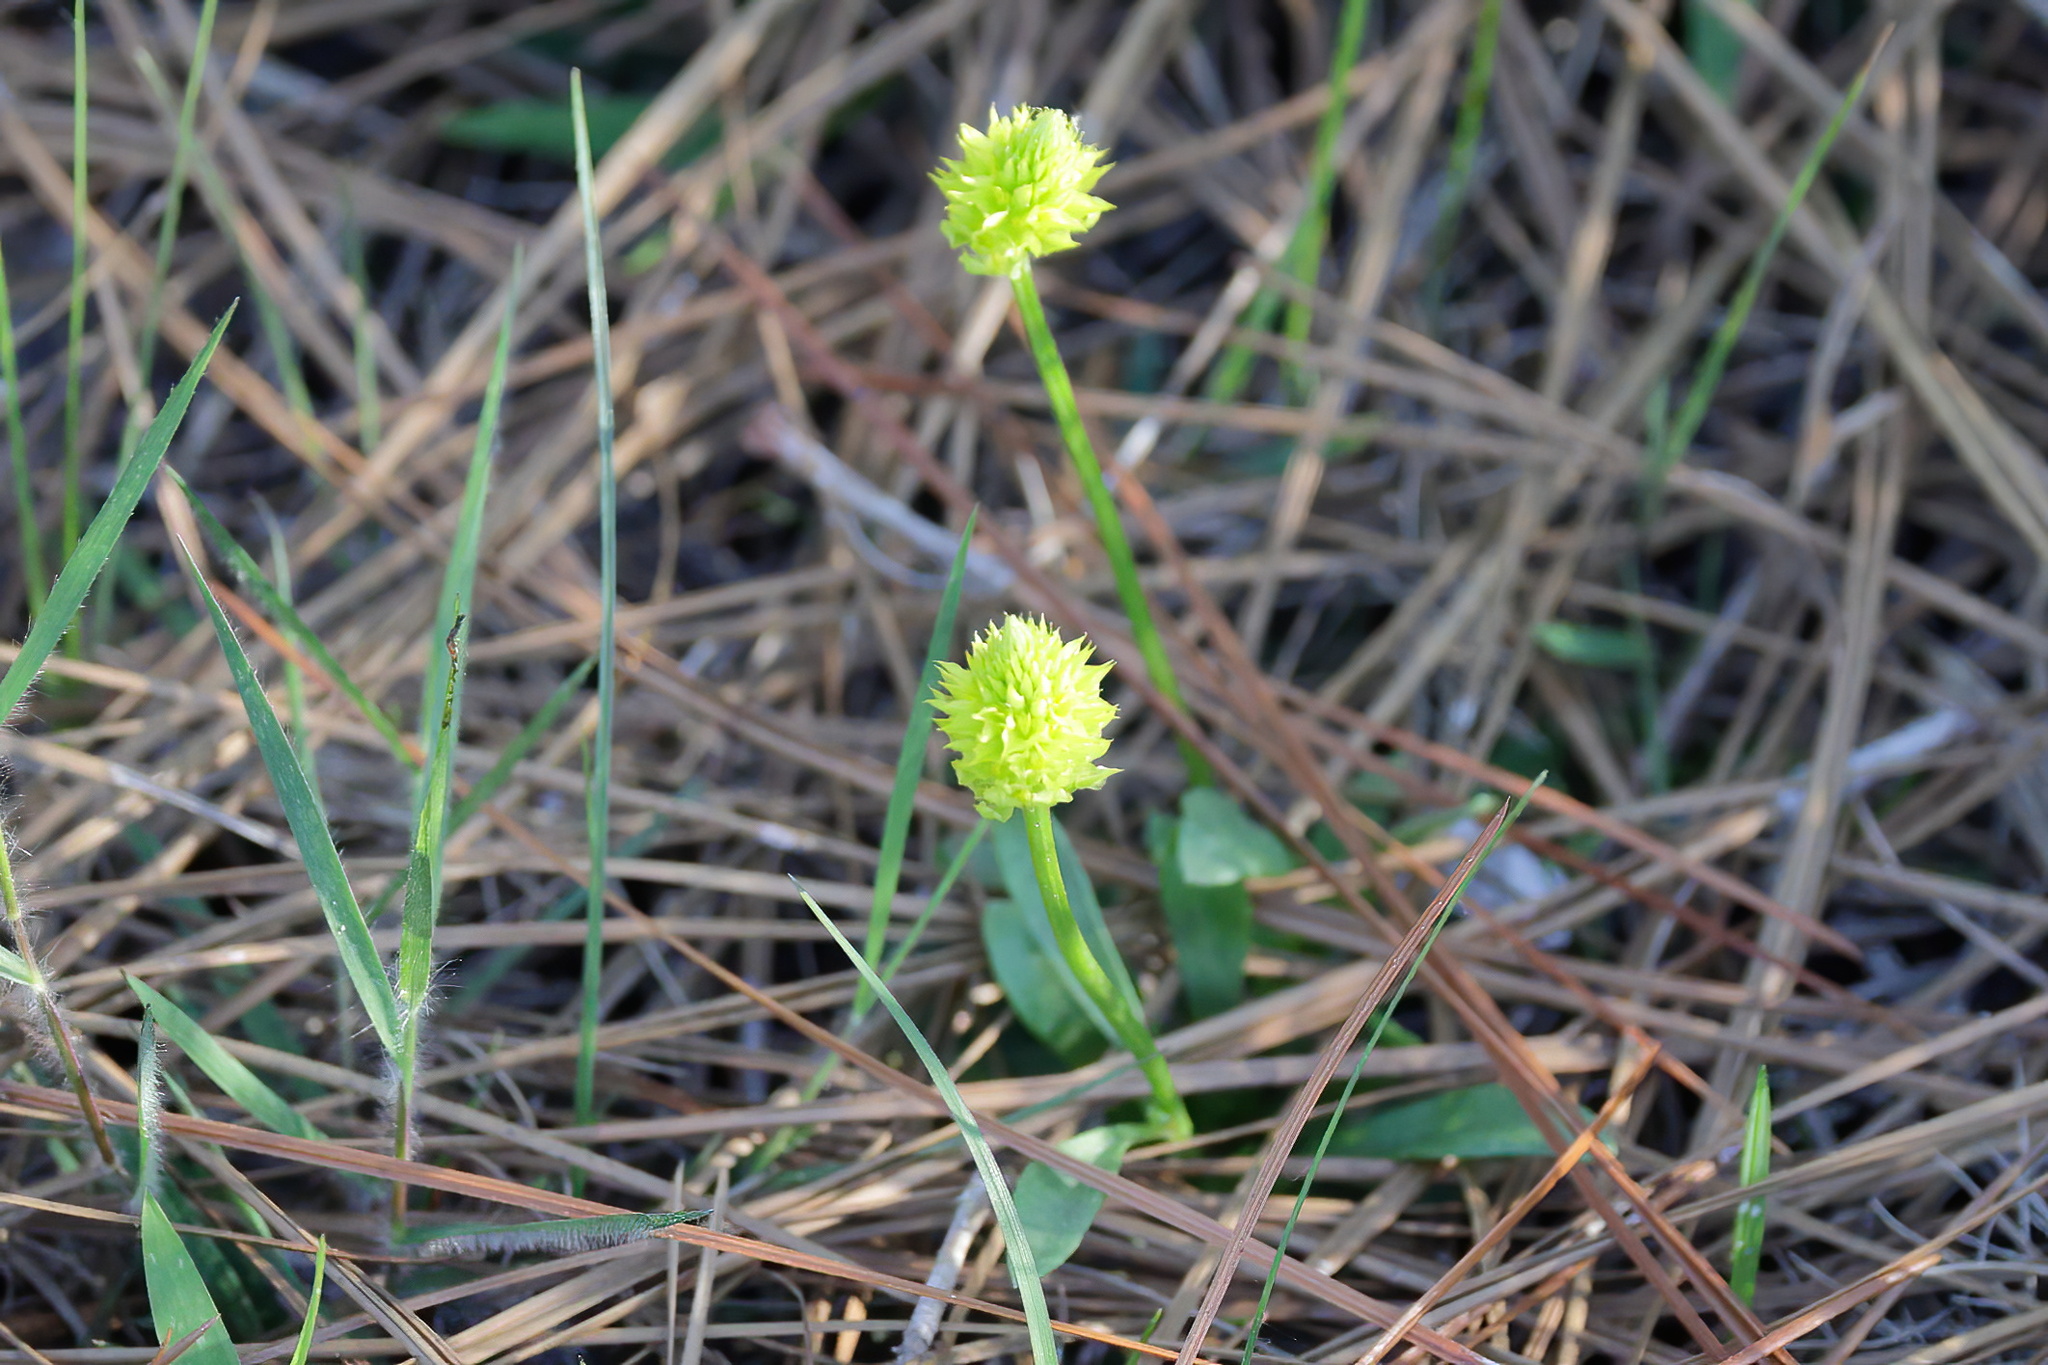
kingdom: Plantae
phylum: Tracheophyta
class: Magnoliopsida
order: Fabales
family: Polygalaceae
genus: Polygala
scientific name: Polygala nana
